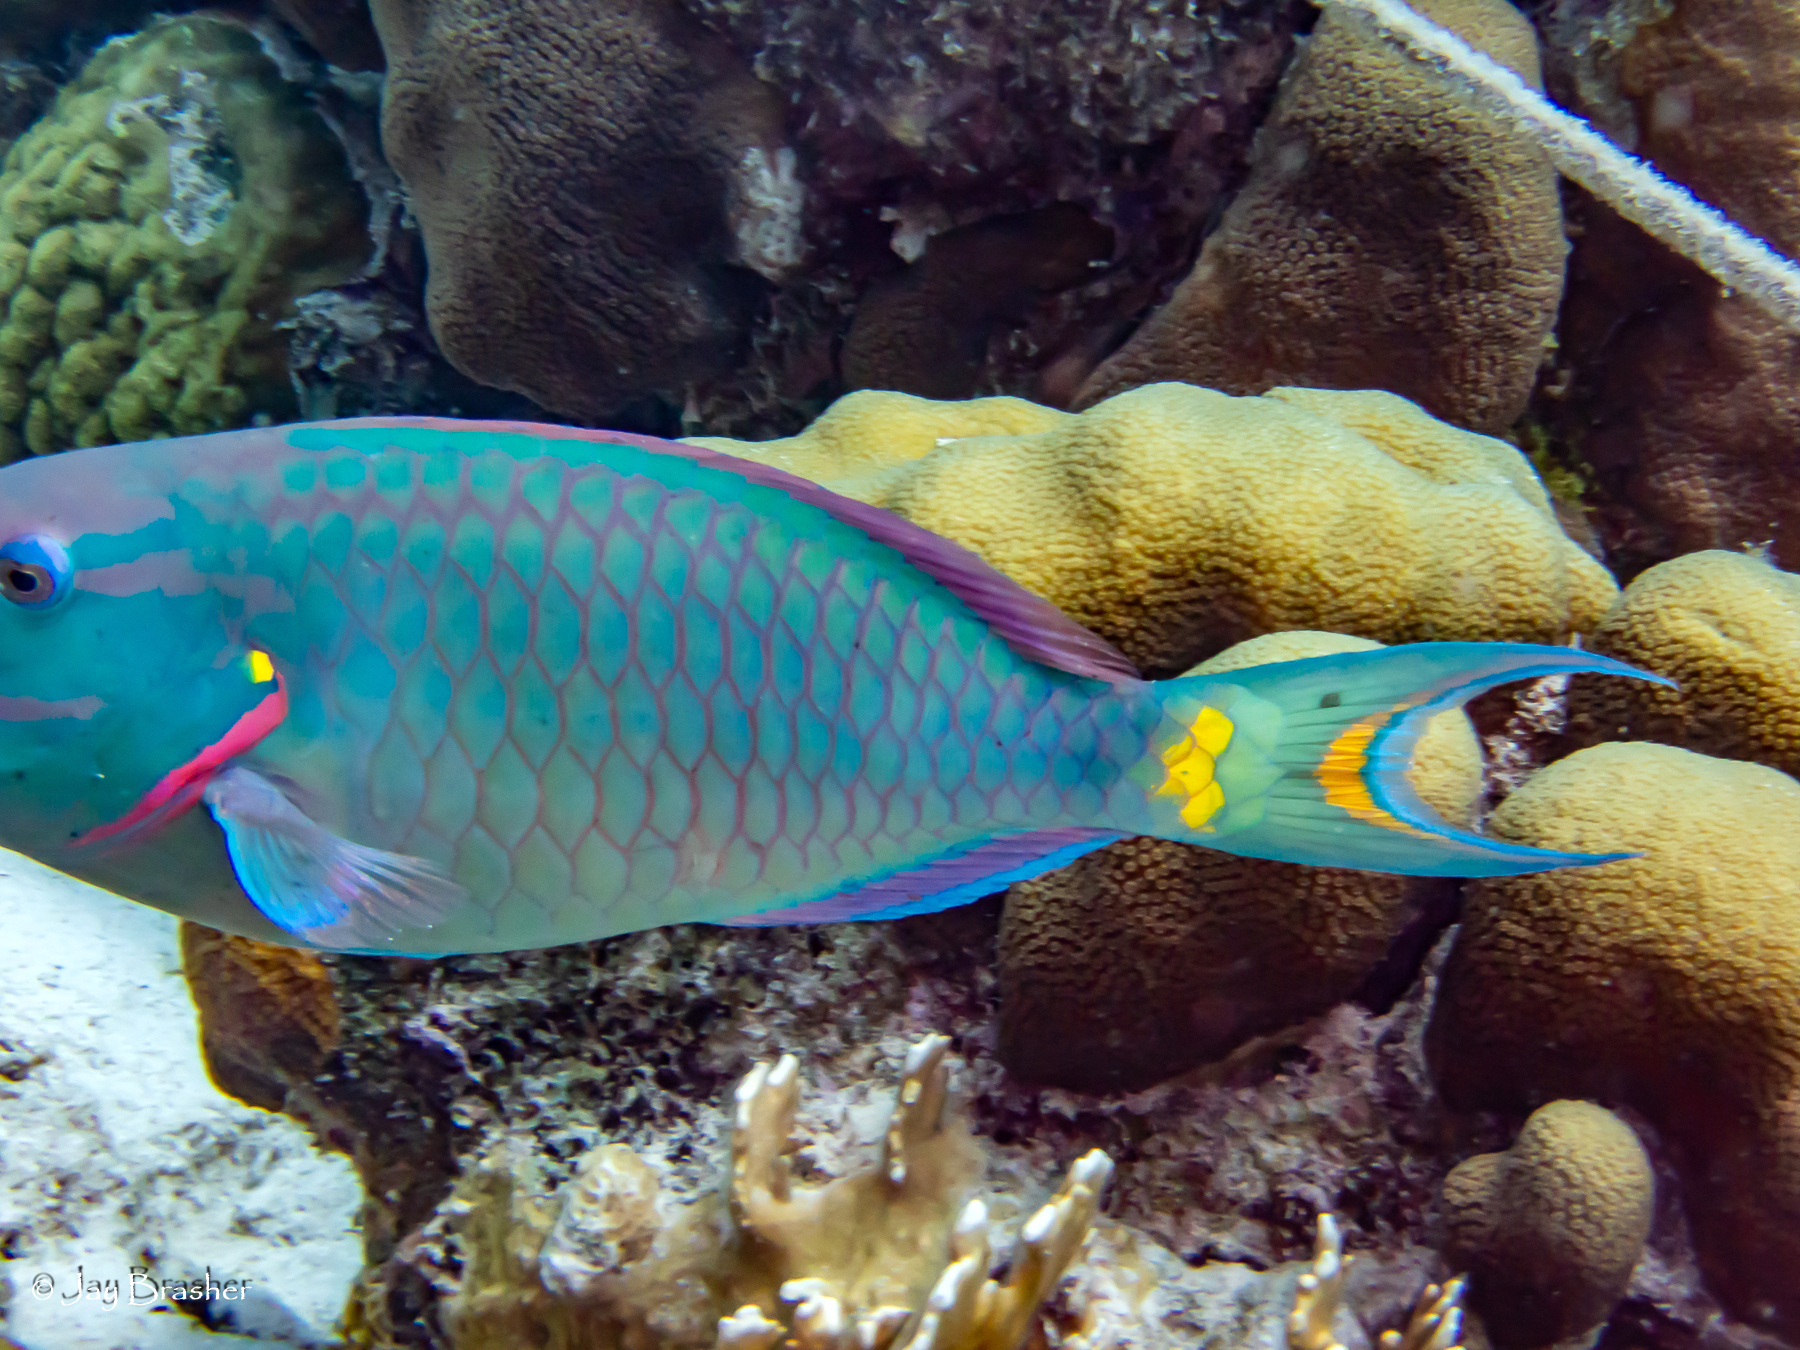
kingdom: Animalia
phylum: Chordata
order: Perciformes
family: Scaridae
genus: Sparisoma
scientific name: Sparisoma viride
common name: Stoplight parrotfish
